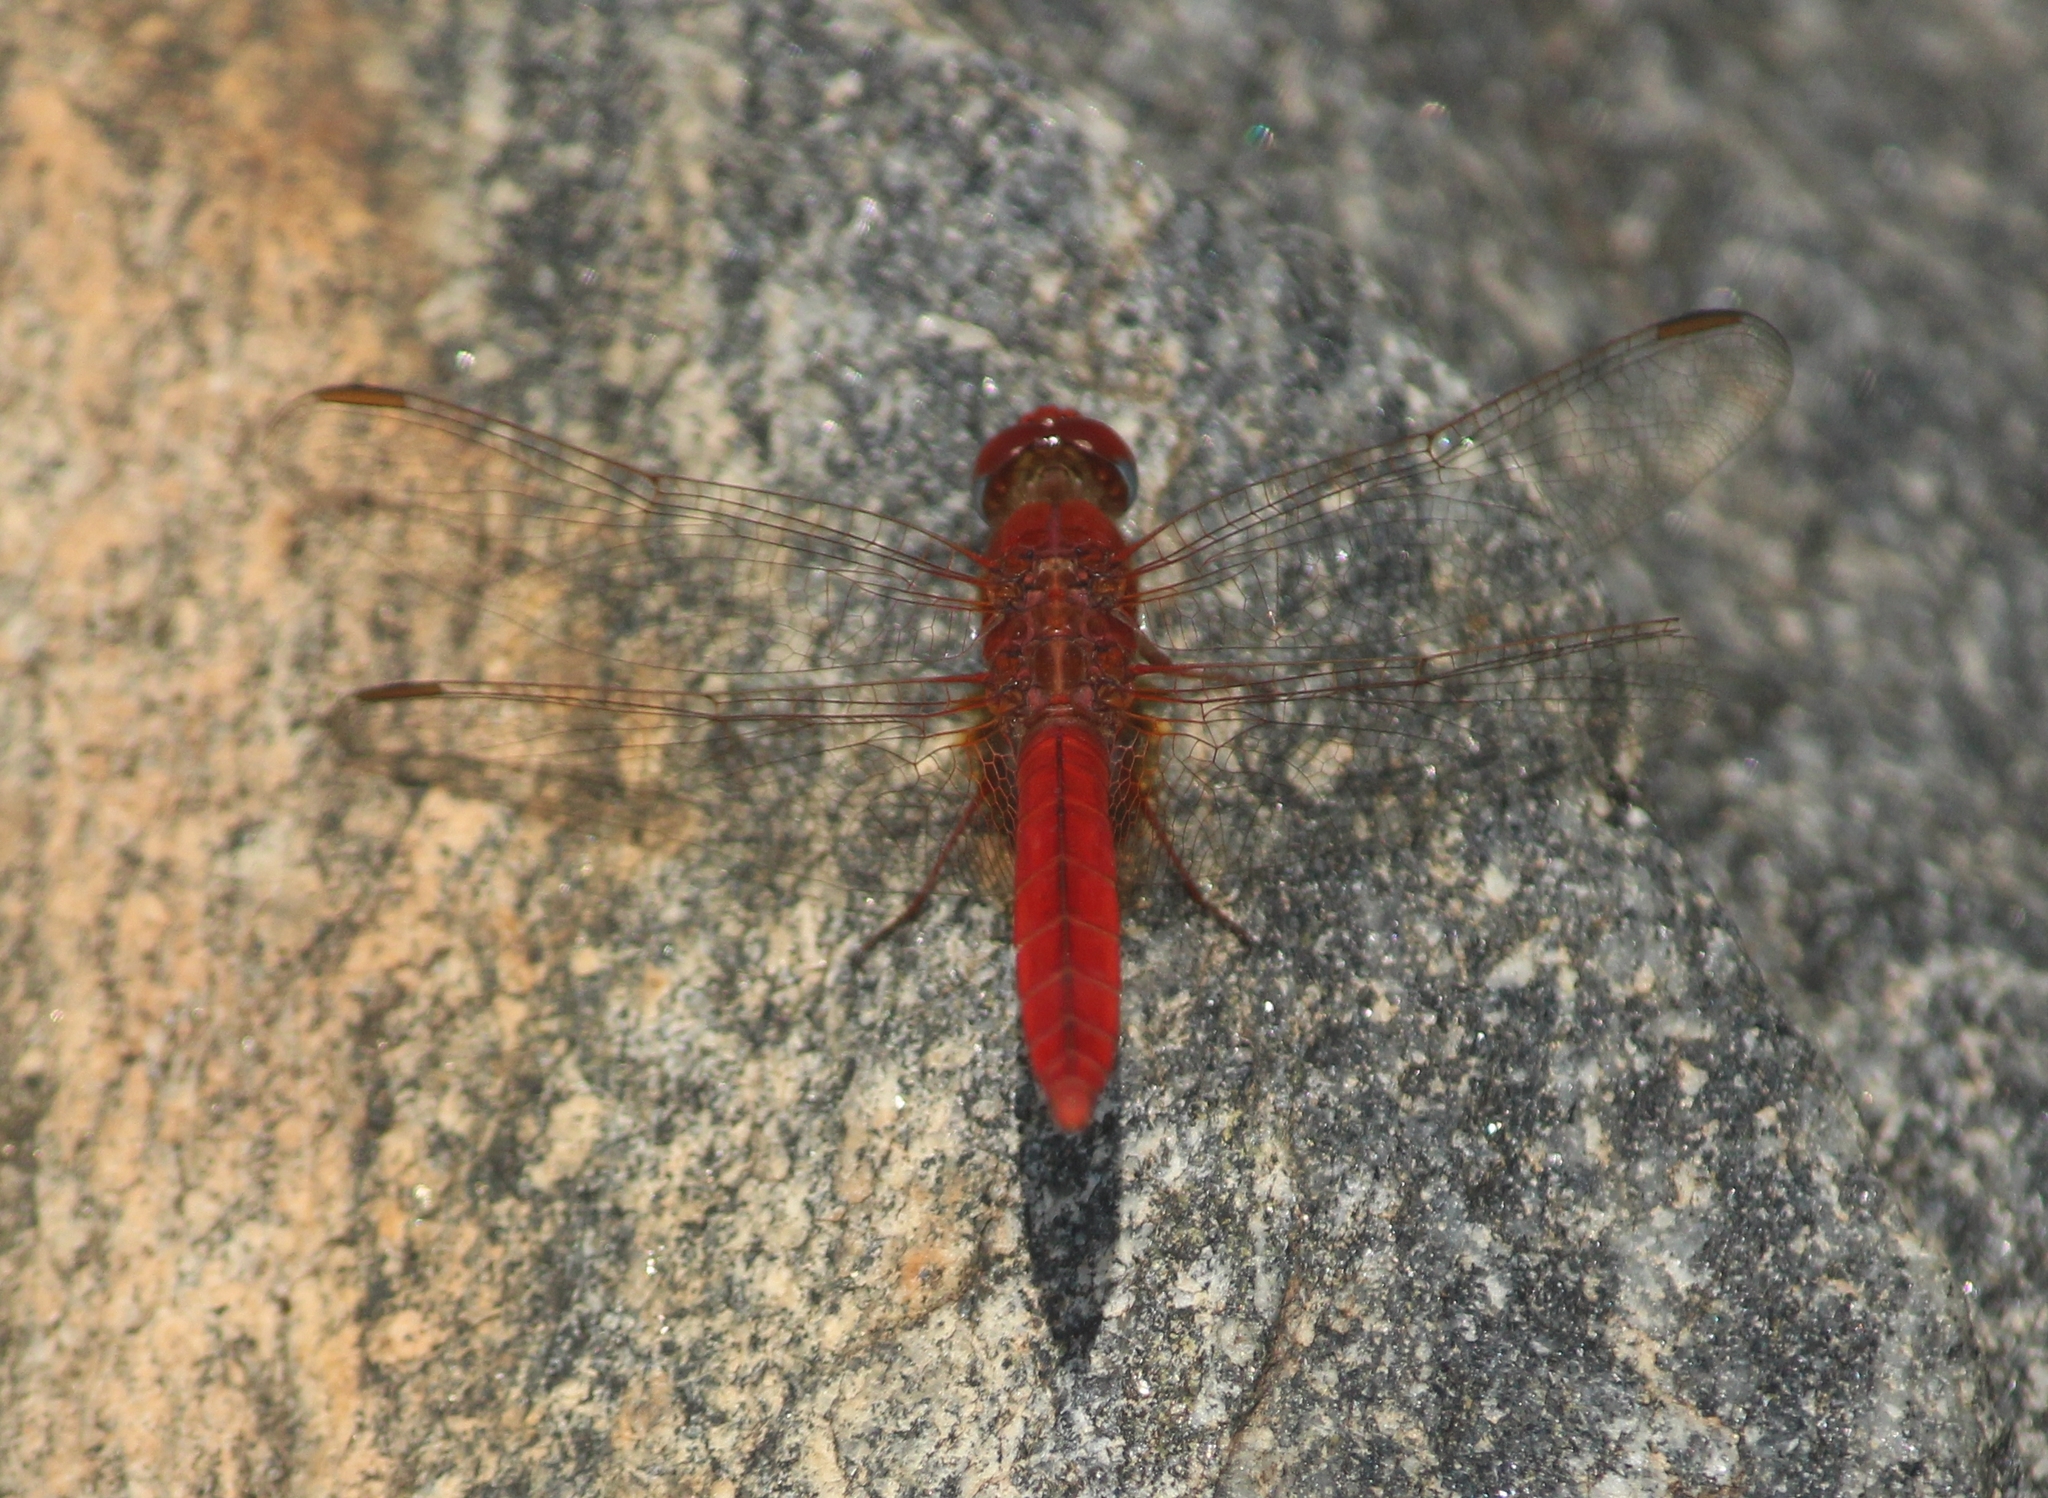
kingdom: Animalia
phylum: Arthropoda
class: Insecta
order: Odonata
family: Libellulidae
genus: Crocothemis
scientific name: Crocothemis servilia
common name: Scarlet skimmer
